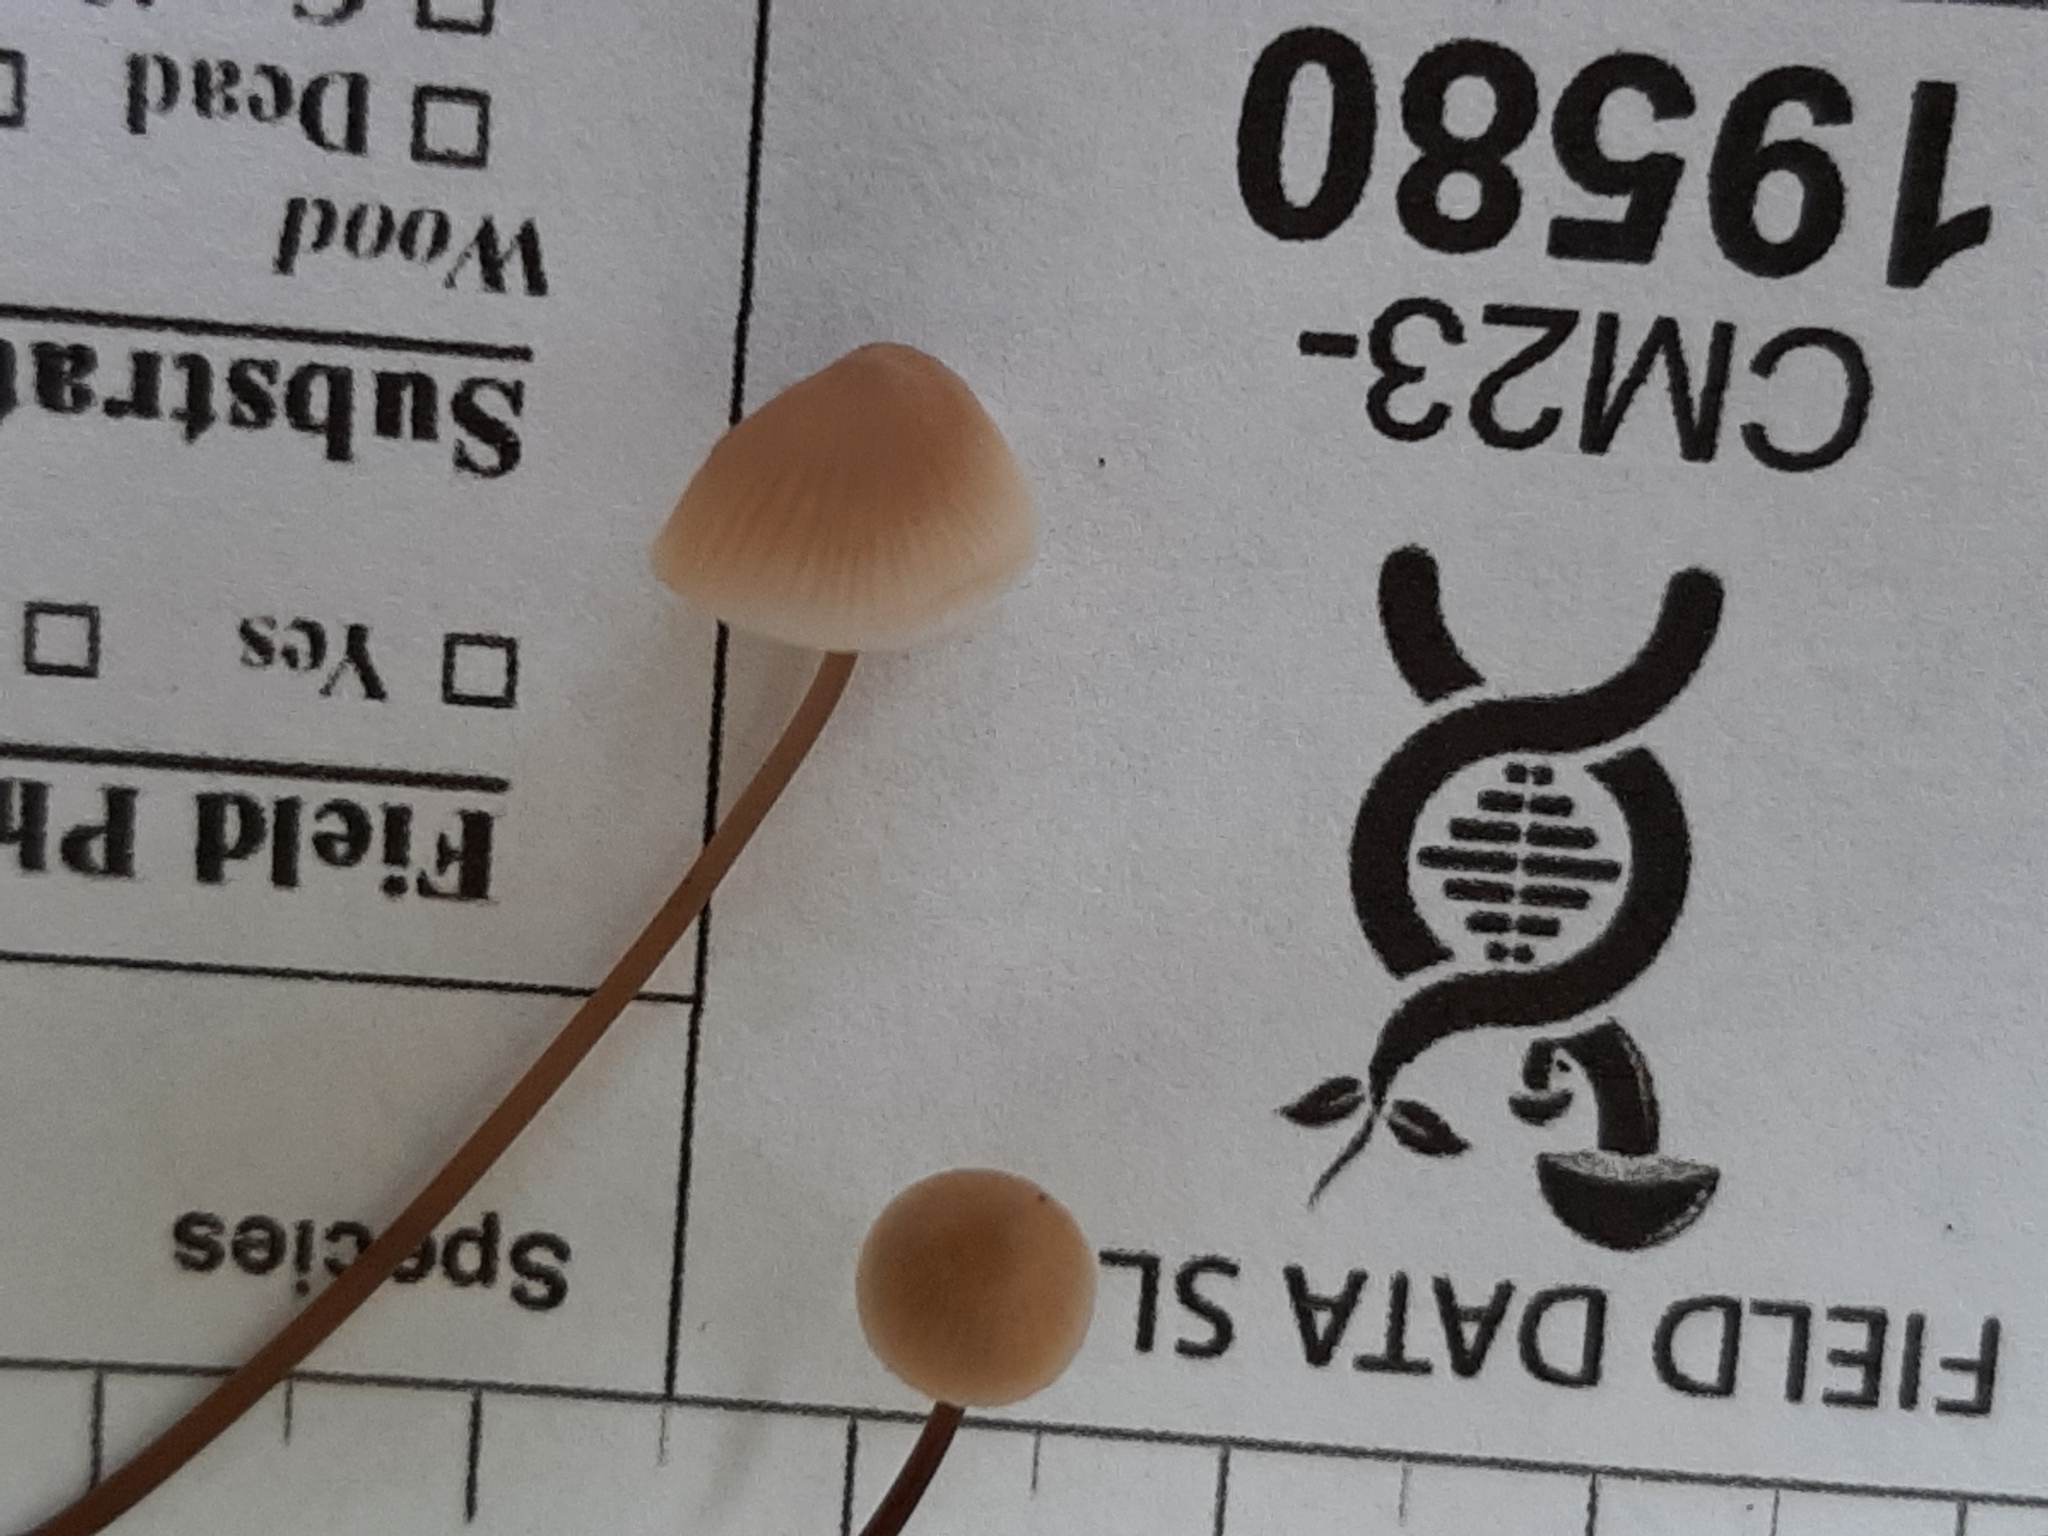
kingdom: Fungi
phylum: Basidiomycota
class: Agaricomycetes
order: Agaricales
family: Mycenaceae
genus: Mycena
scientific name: Mycena filopes
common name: Iodine bonnet
